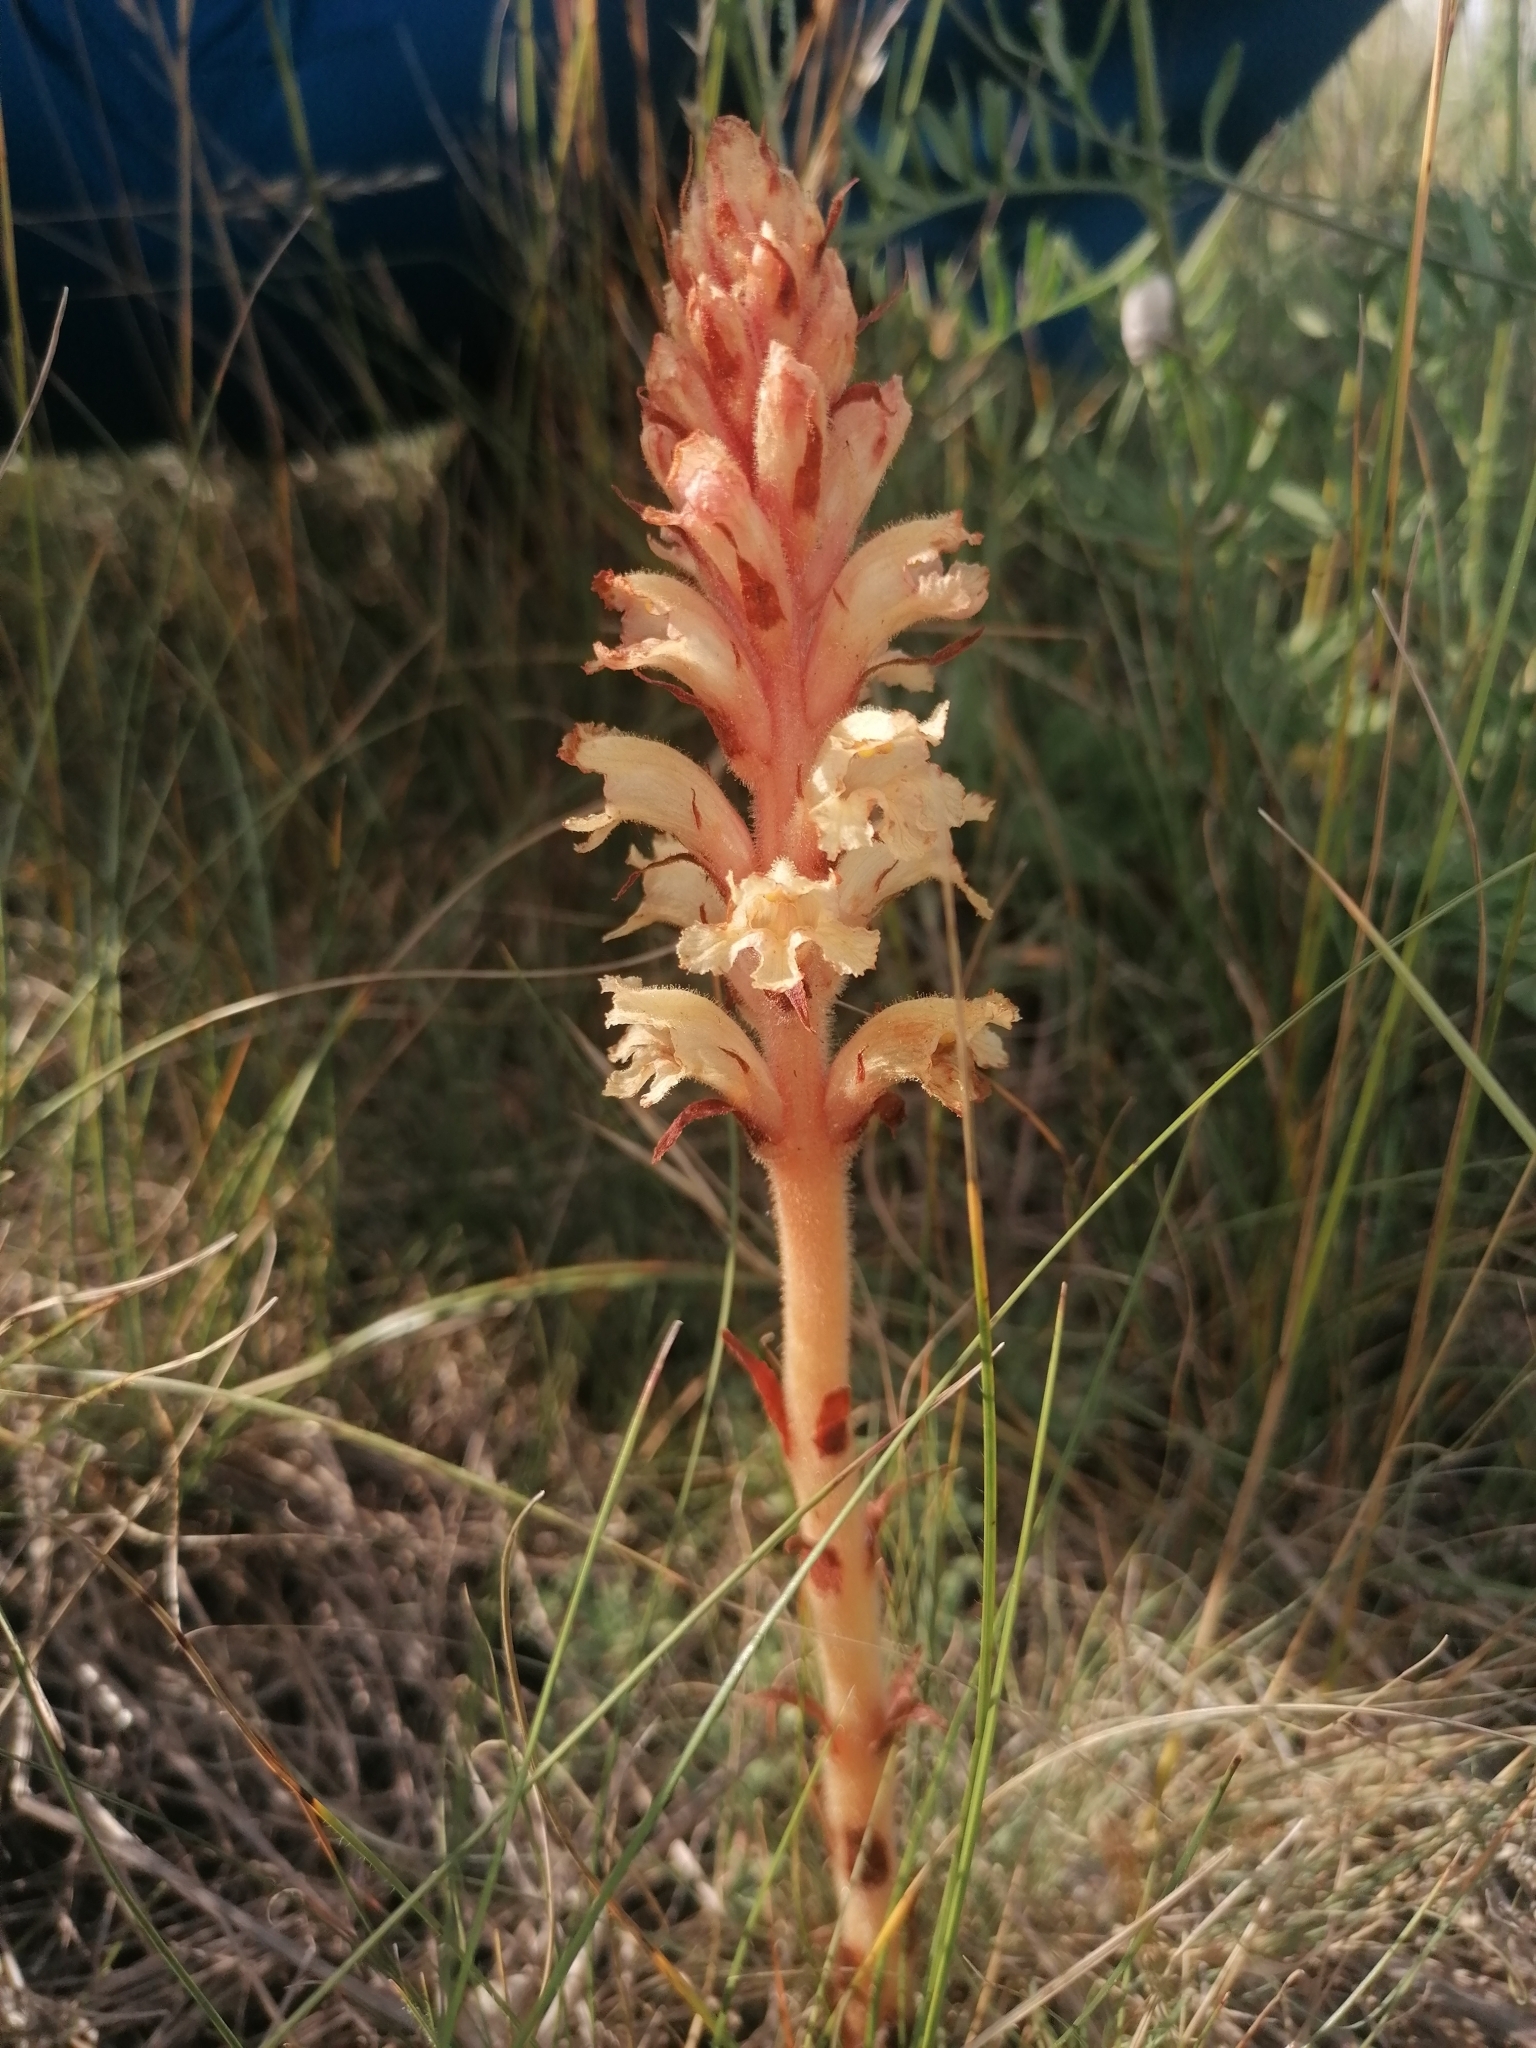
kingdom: Plantae
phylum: Tracheophyta
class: Magnoliopsida
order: Lamiales
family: Orobanchaceae
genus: Orobanche
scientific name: Orobanche centaurina
